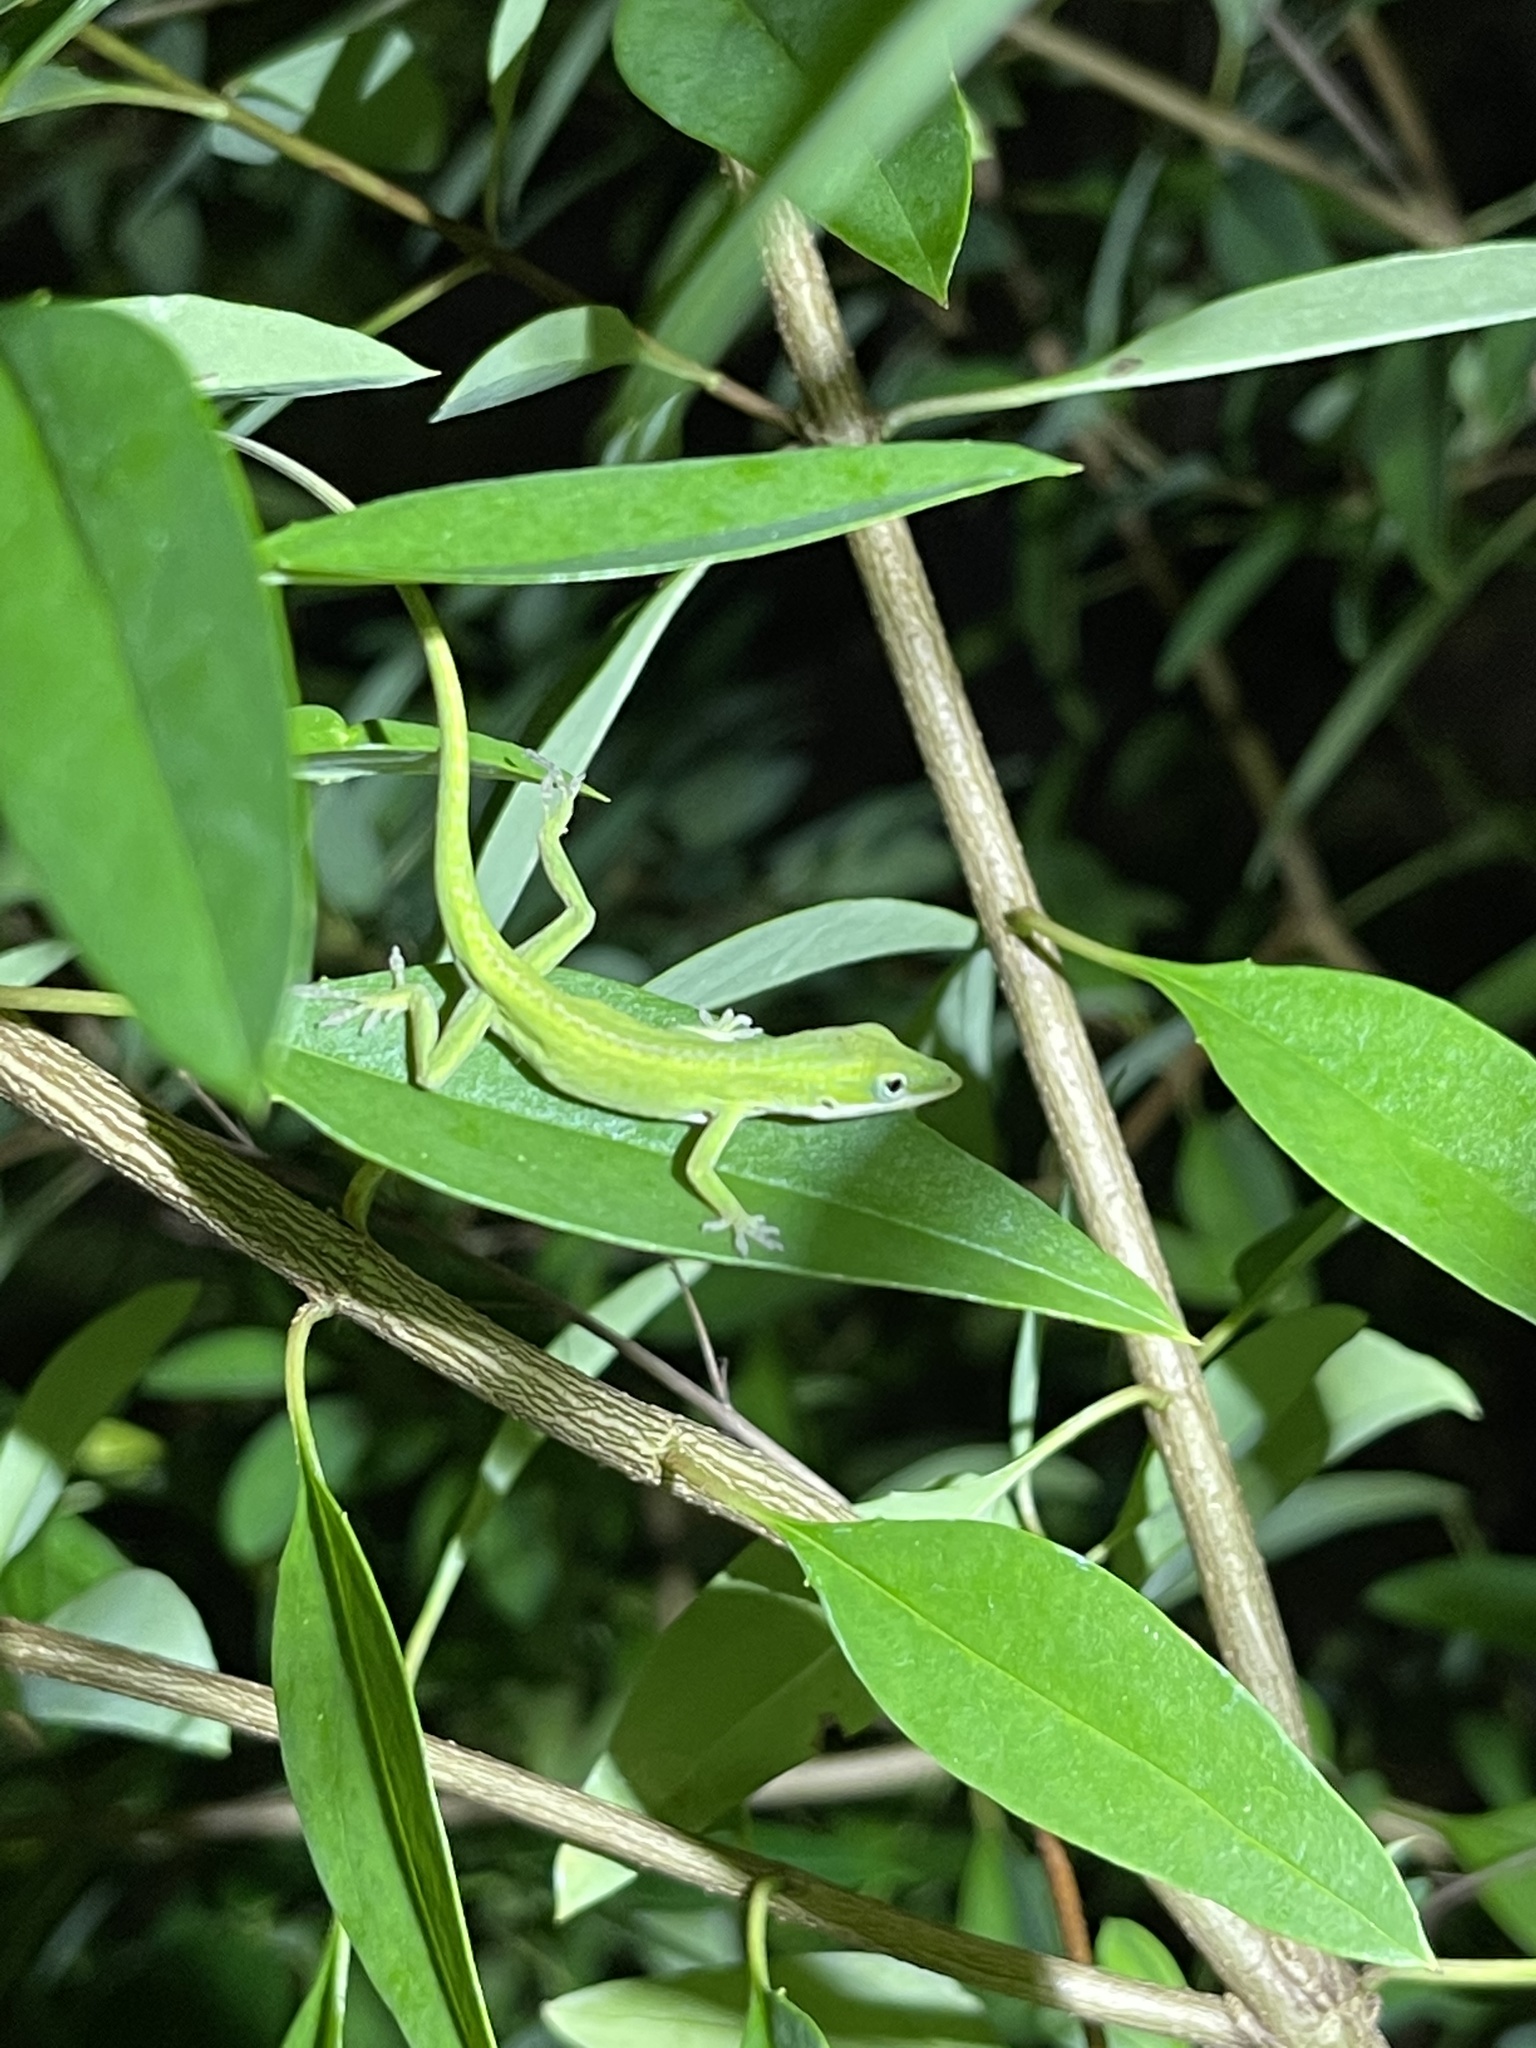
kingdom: Animalia
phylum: Chordata
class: Squamata
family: Dactyloidae
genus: Anolis
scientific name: Anolis carolinensis
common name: Green anole
